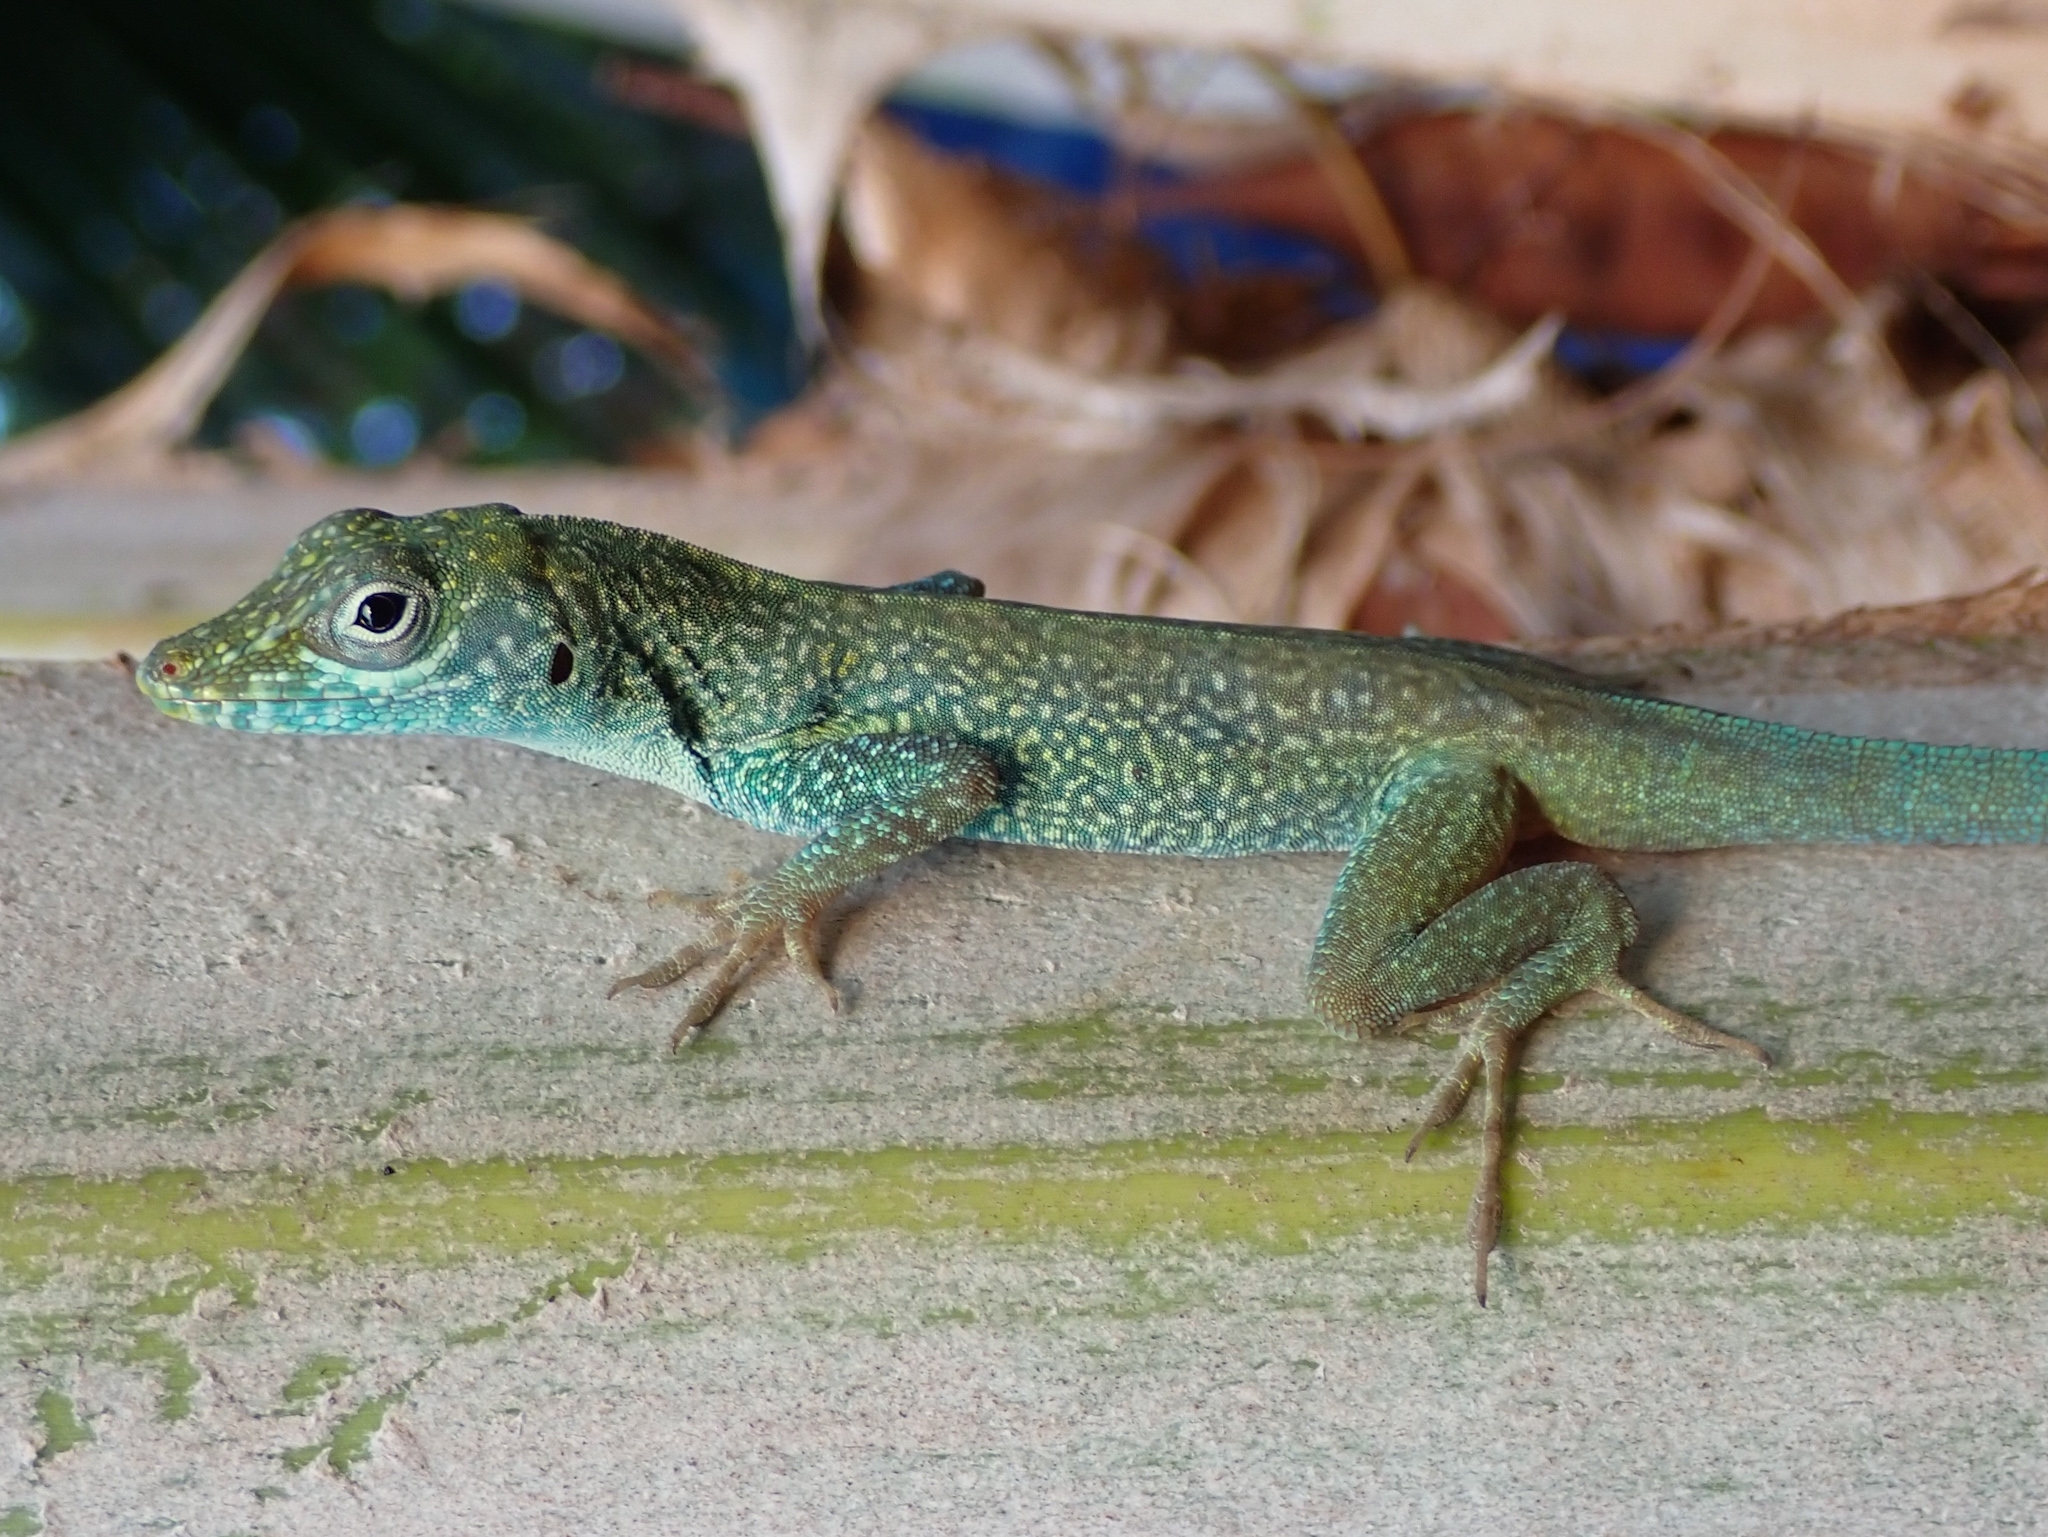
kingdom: Animalia
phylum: Chordata
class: Squamata
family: Dactyloidae
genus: Anolis
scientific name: Anolis conspersus
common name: Grand cayman anole
